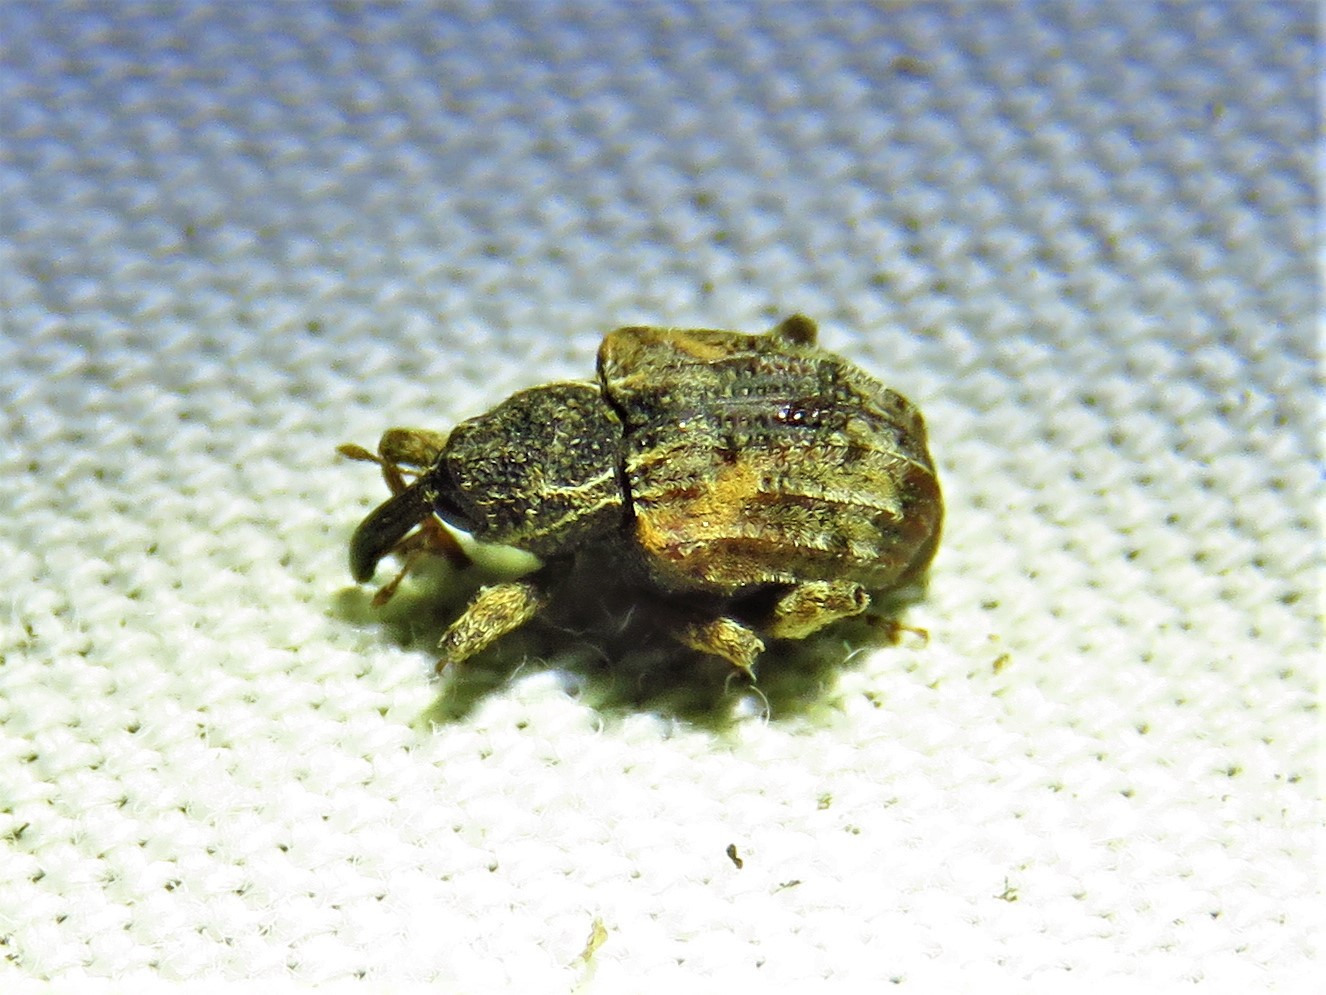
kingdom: Animalia
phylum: Arthropoda
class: Insecta
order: Coleoptera
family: Curculionidae
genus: Conotrachelus
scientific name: Conotrachelus anaglypticus
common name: Cambium curculio
